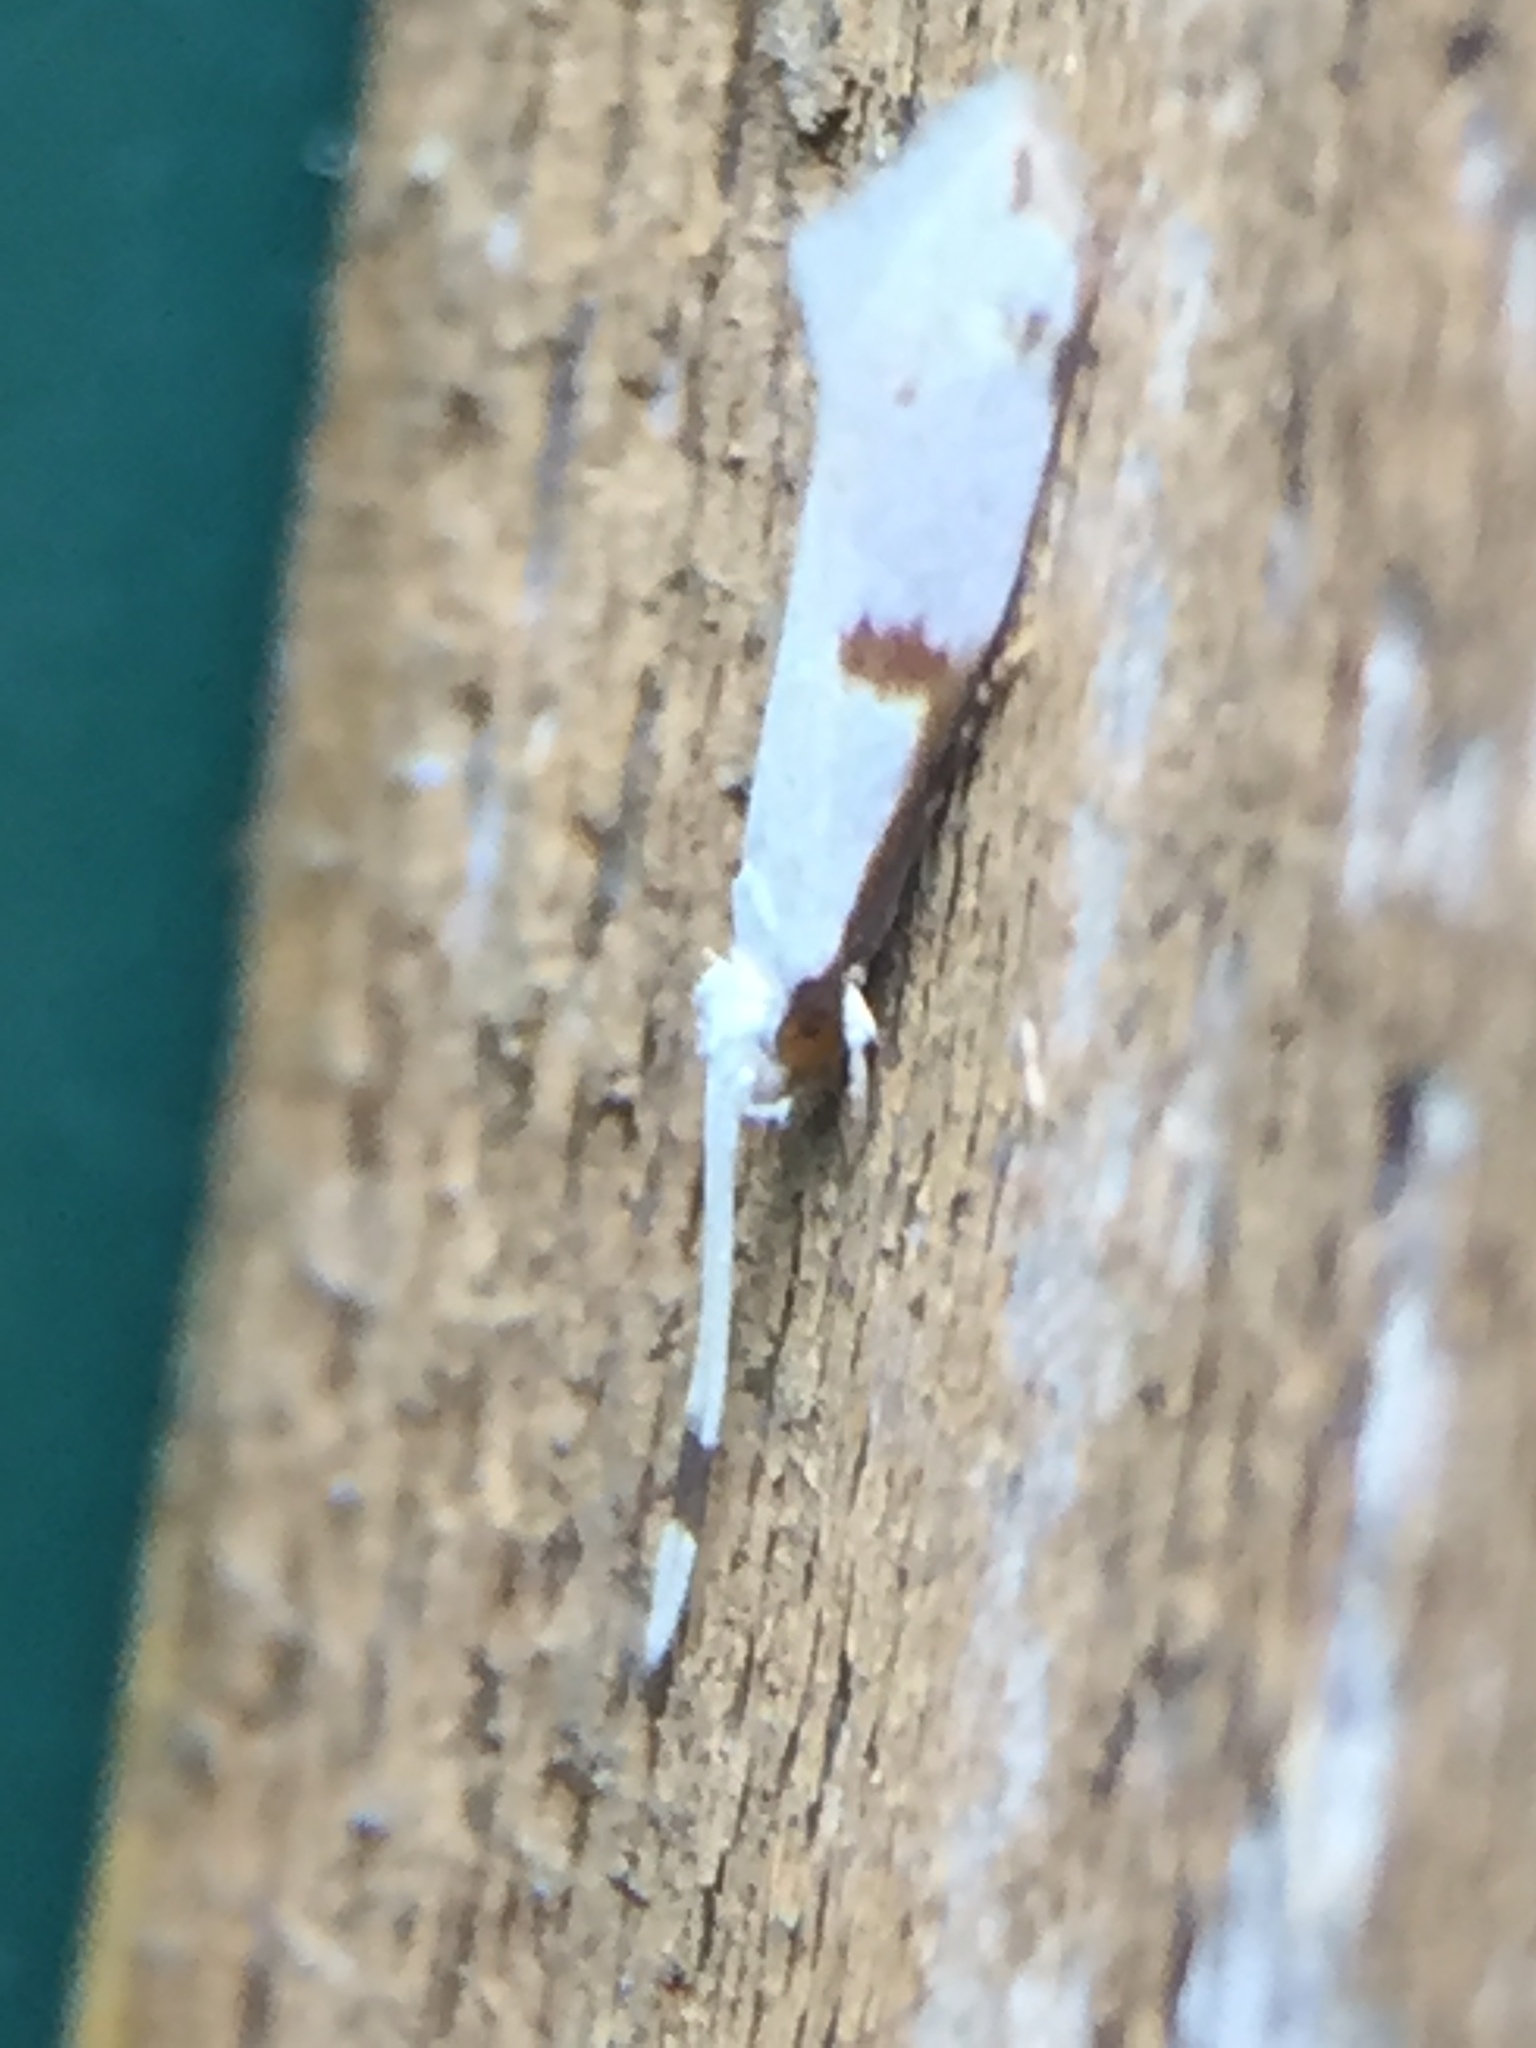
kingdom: Animalia
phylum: Arthropoda
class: Insecta
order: Lepidoptera
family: Tineidae
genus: Sagephora
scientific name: Sagephora felix
